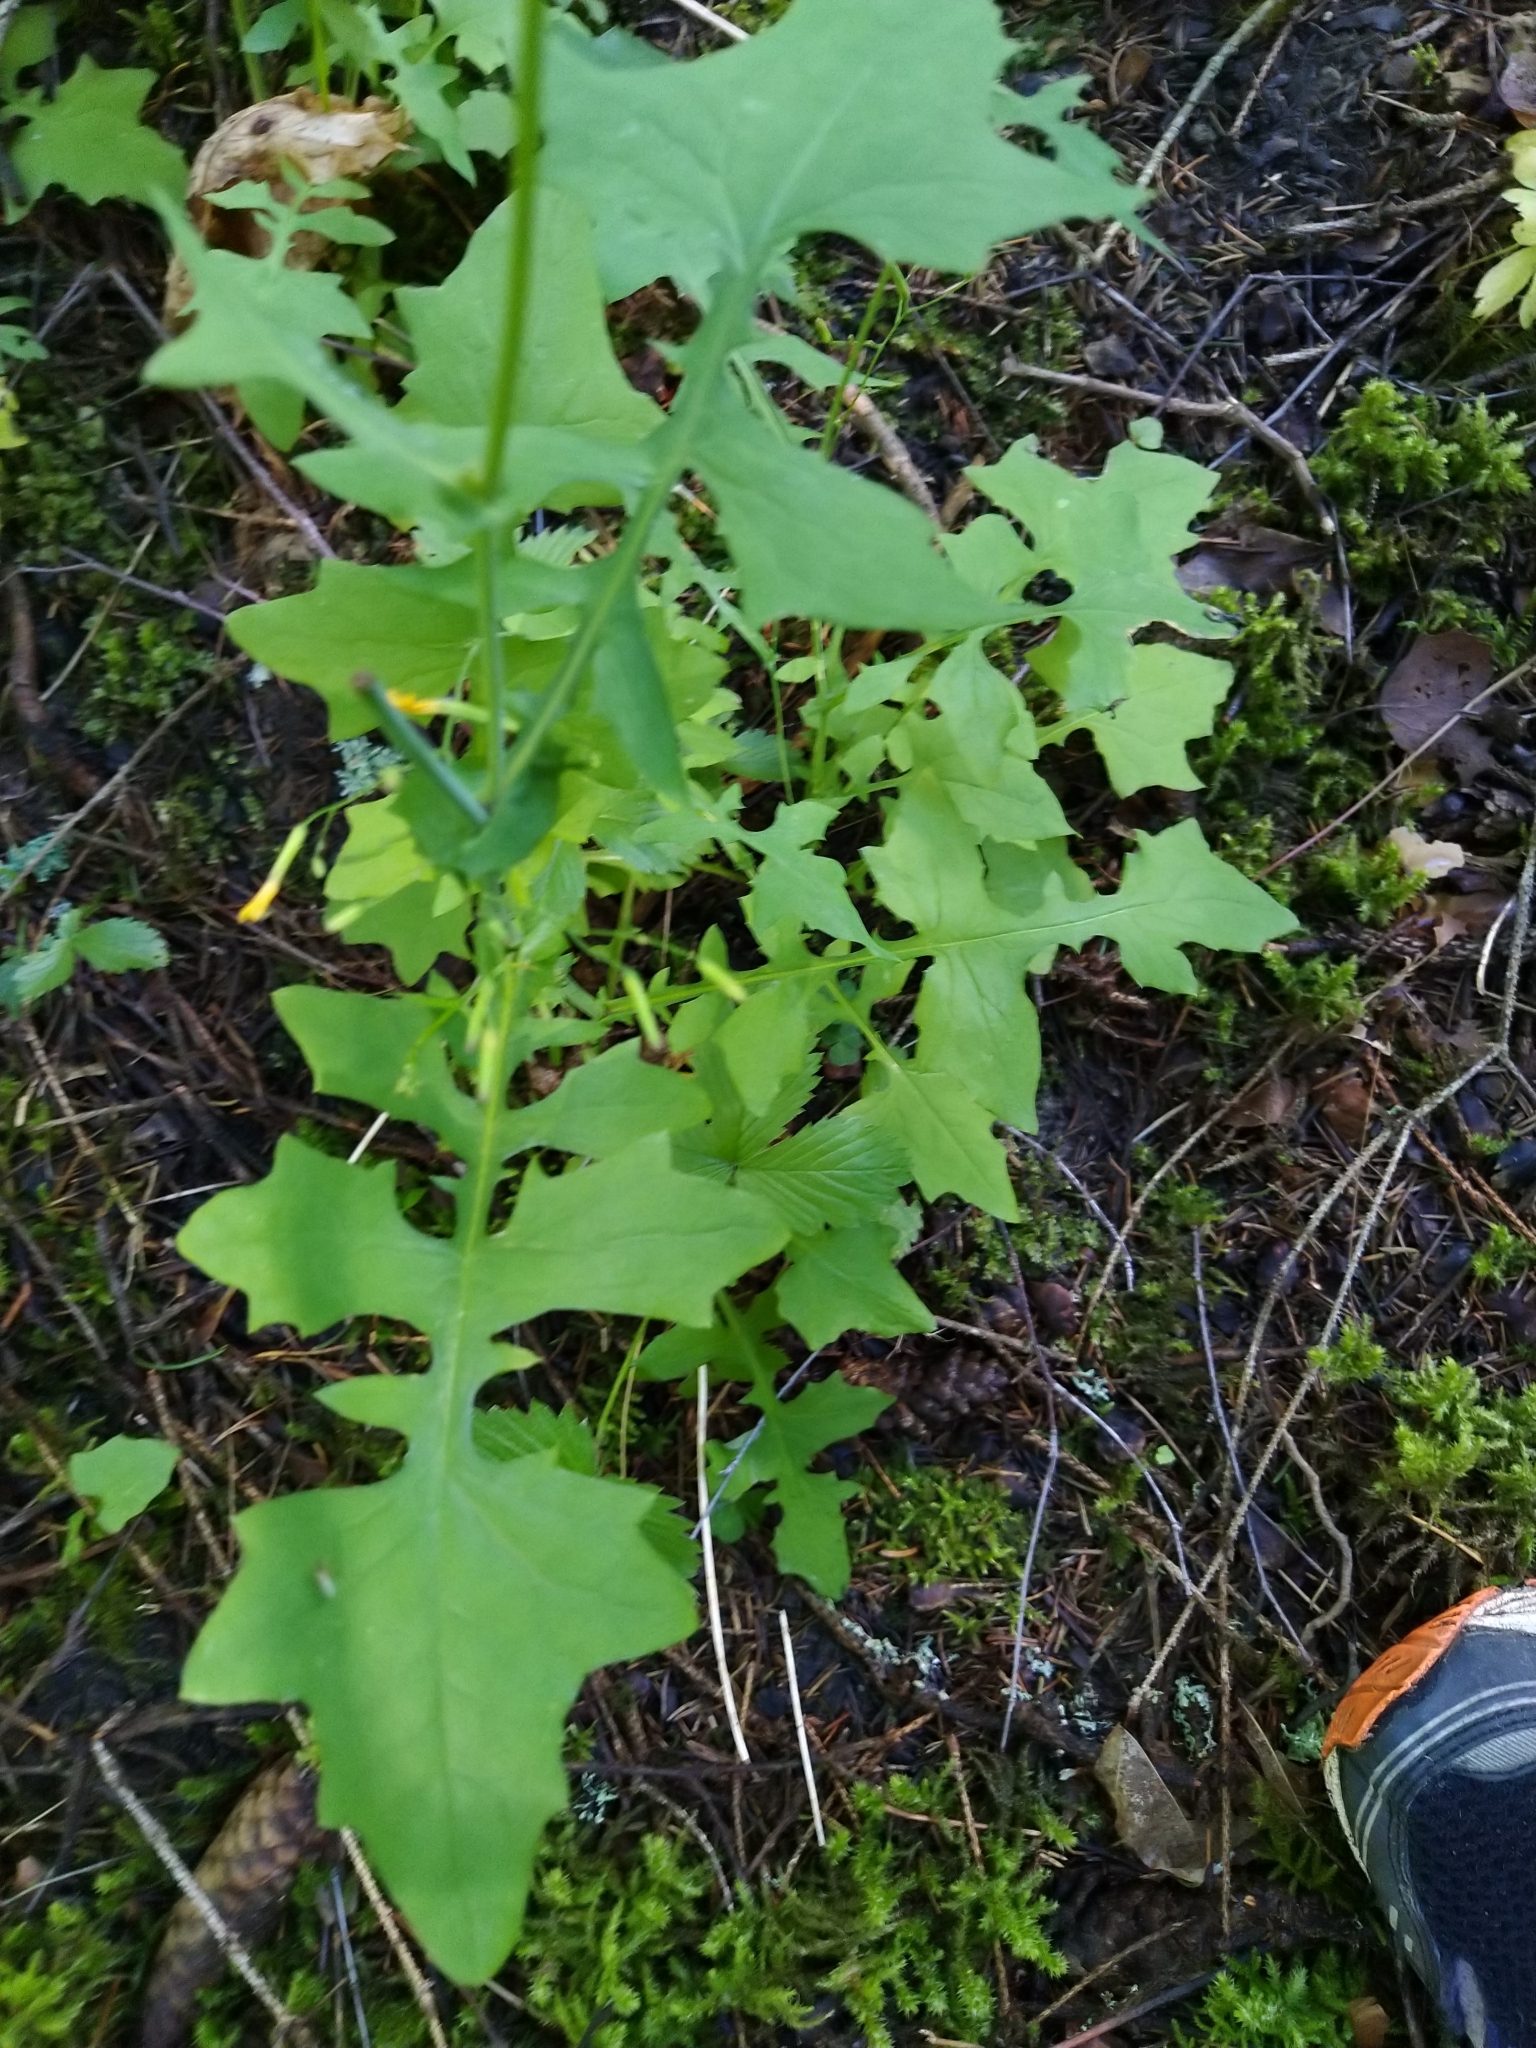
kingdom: Plantae
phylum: Tracheophyta
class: Magnoliopsida
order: Asterales
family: Asteraceae
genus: Mycelis
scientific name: Mycelis muralis
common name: Wall lettuce
